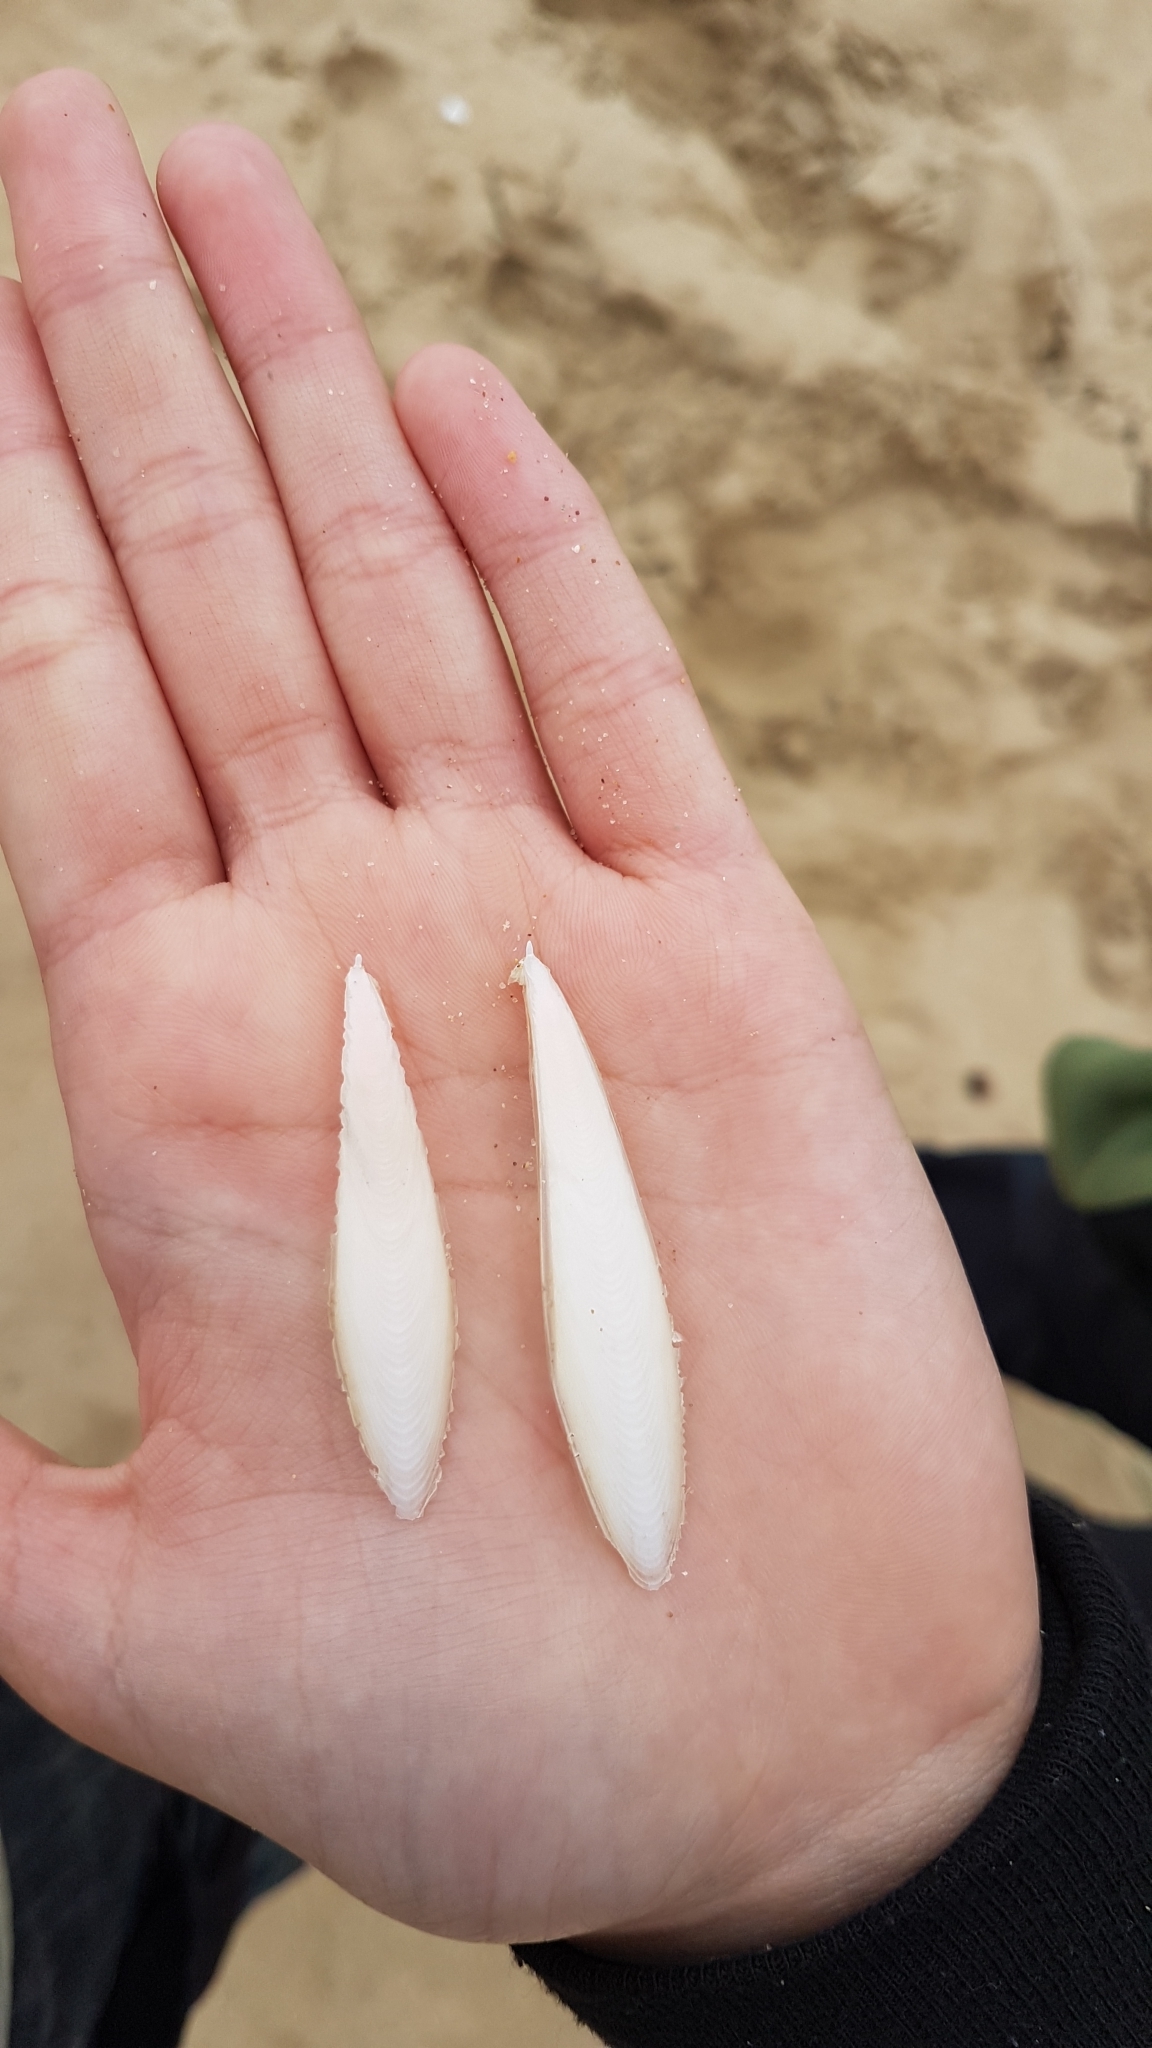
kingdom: Animalia
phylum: Mollusca
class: Cephalopoda
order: Sepiida
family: Sepiidae
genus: Doratosepion
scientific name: Doratosepion braggi
